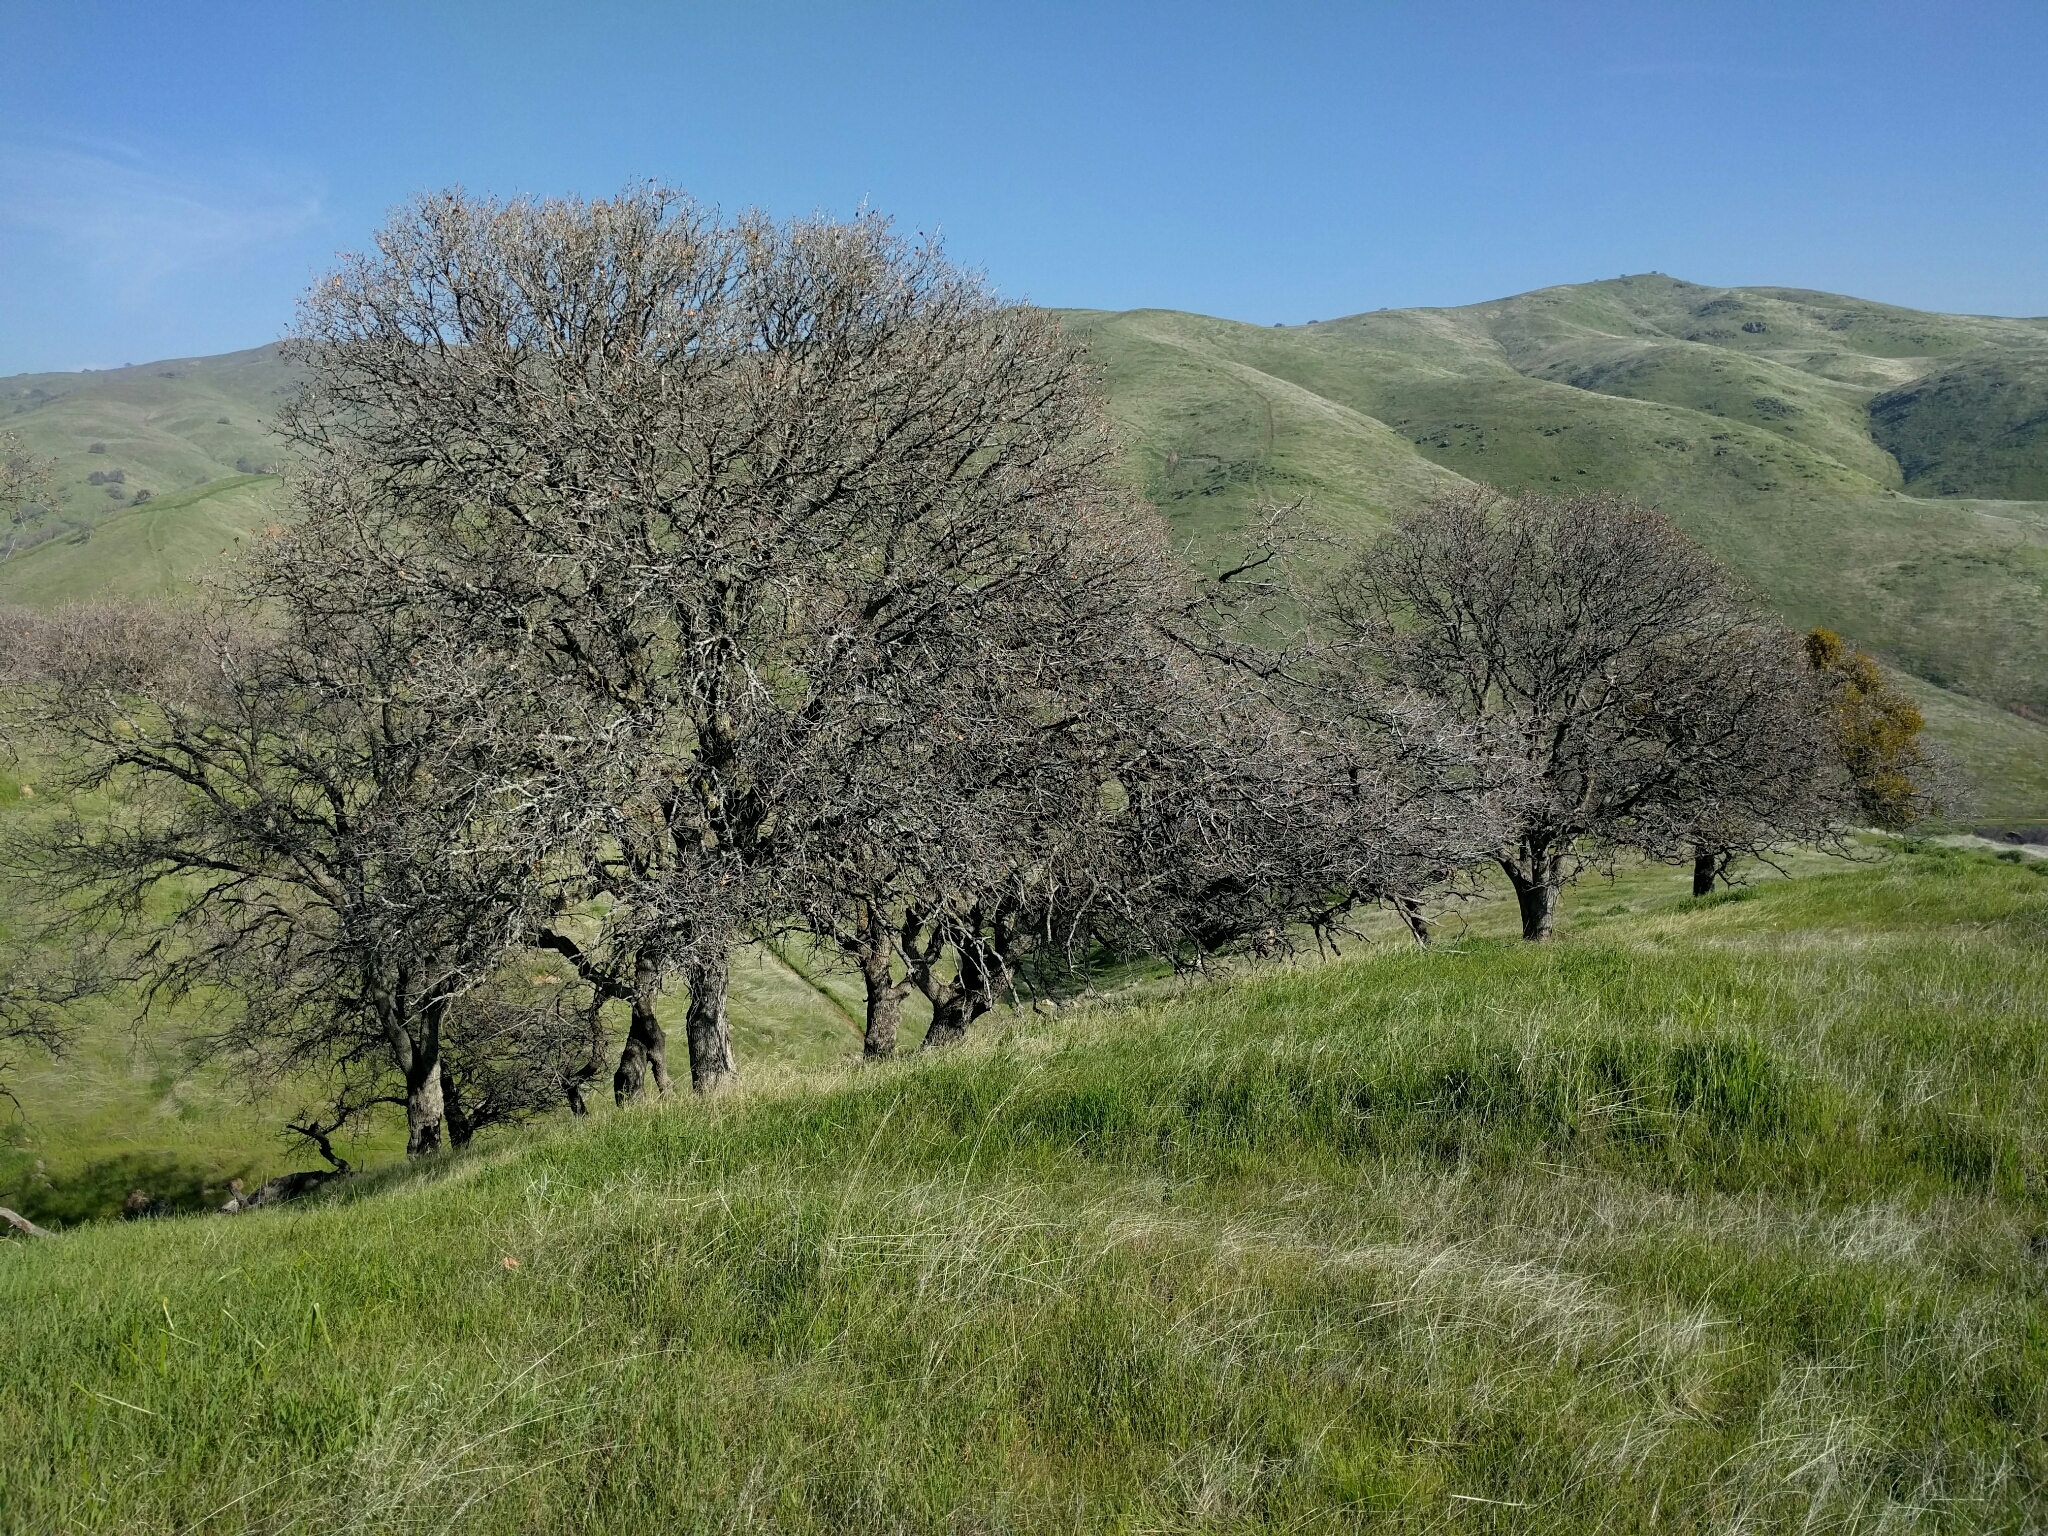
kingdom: Plantae
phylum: Tracheophyta
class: Magnoliopsida
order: Fagales
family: Fagaceae
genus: Quercus
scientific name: Quercus douglasii
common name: Blue oak
